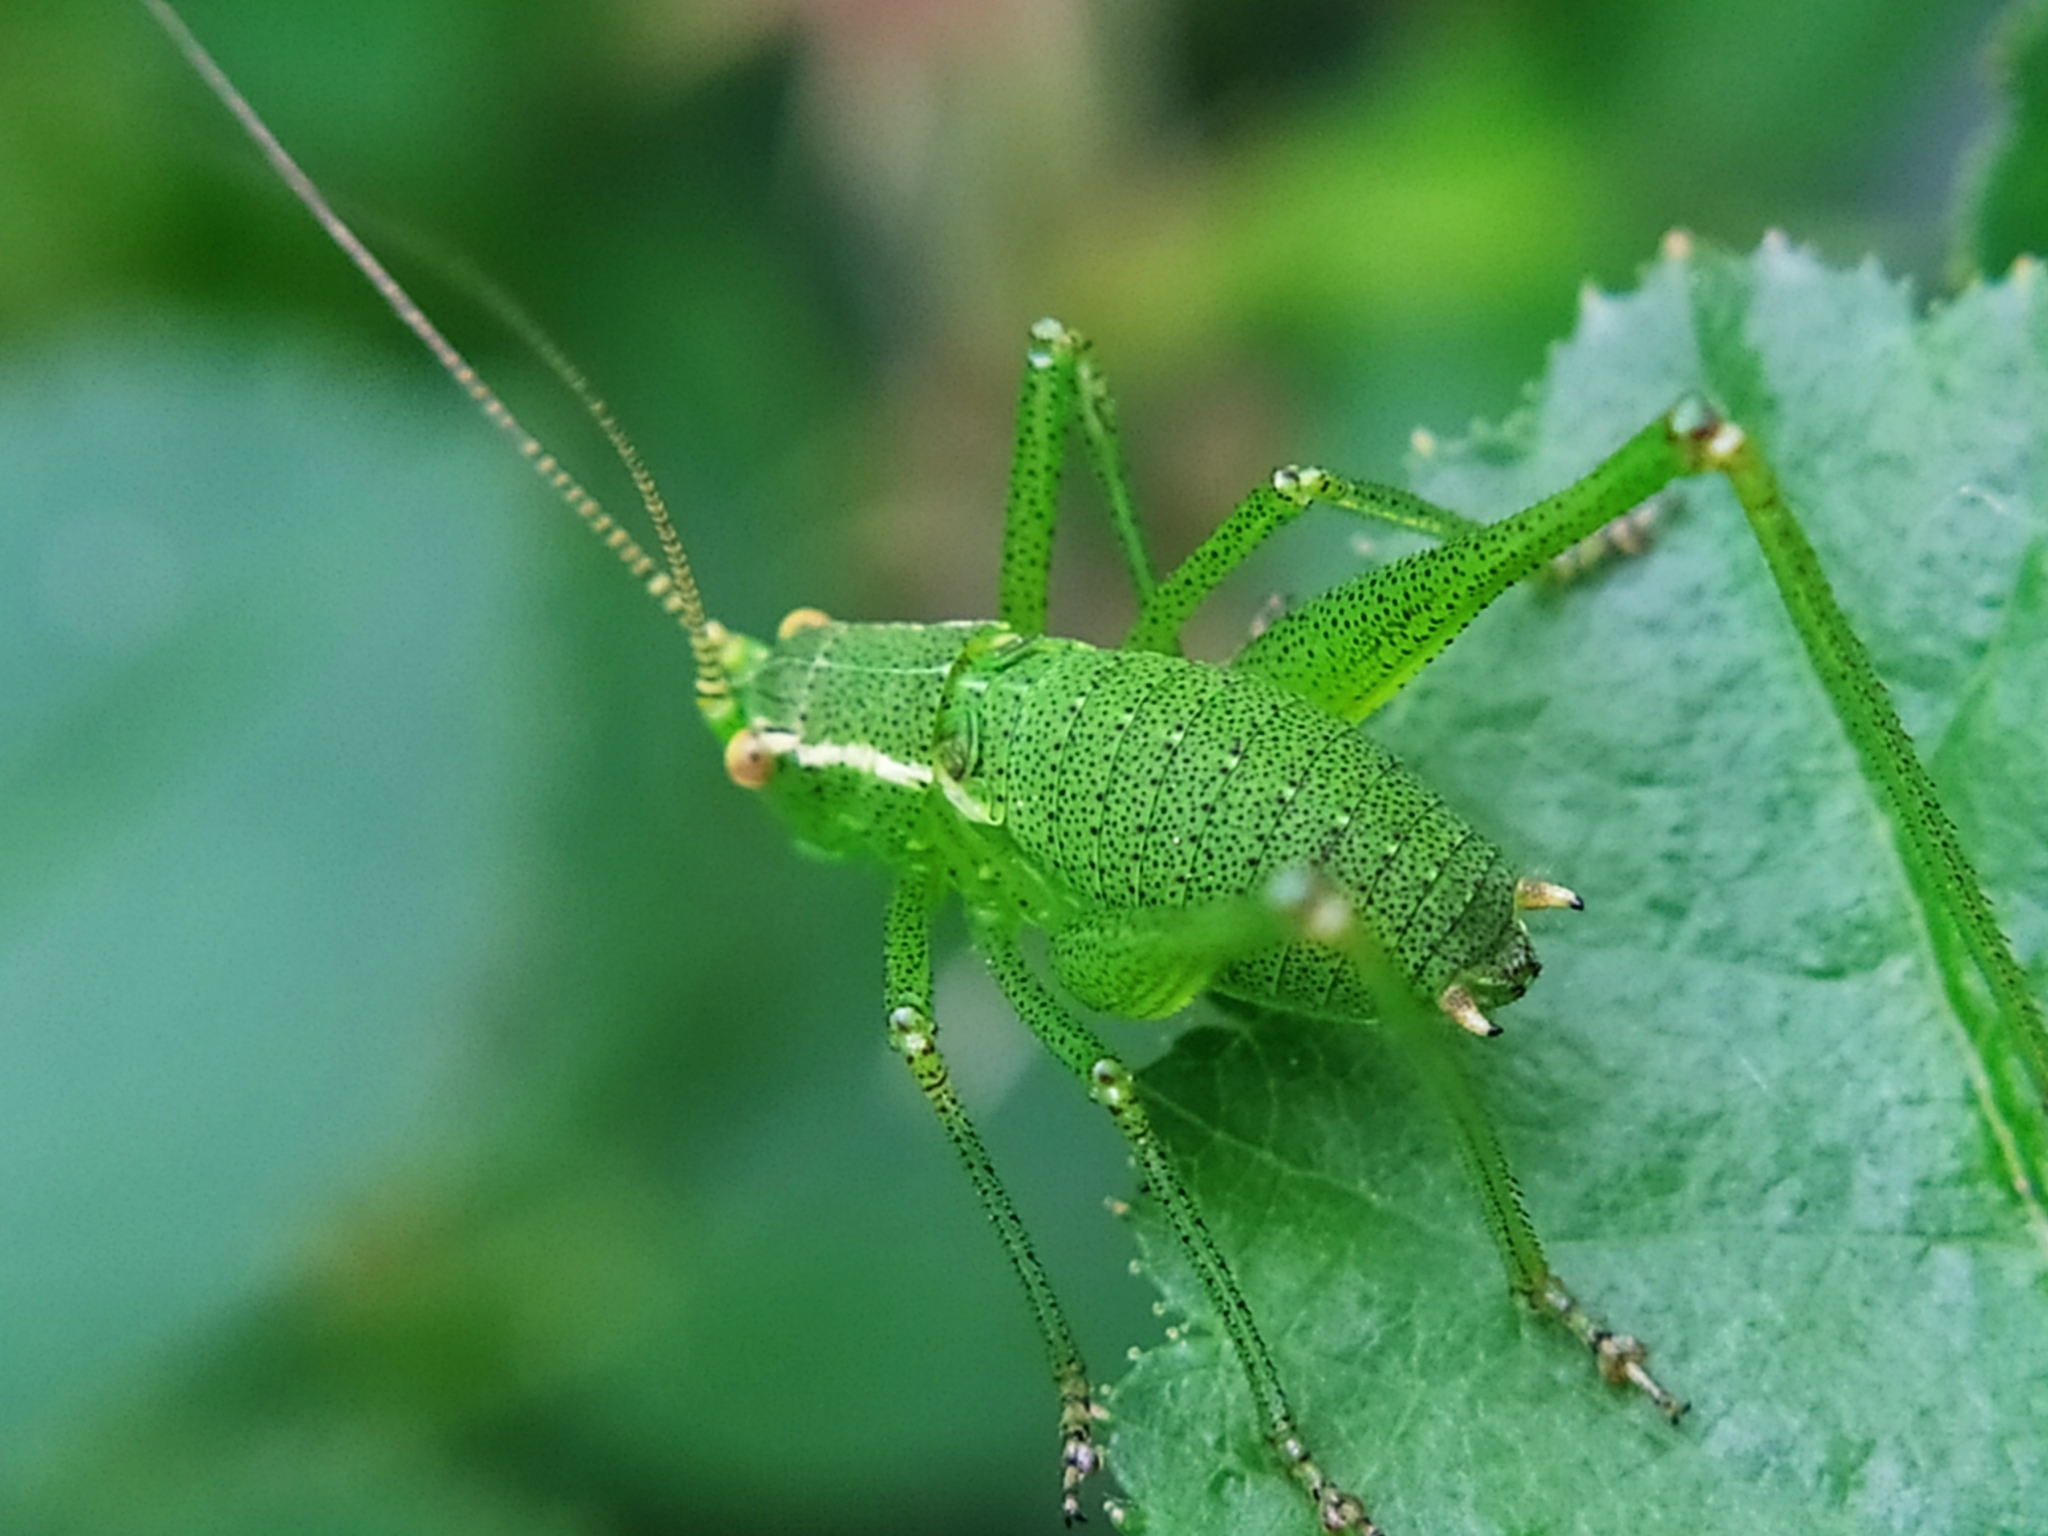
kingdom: Animalia
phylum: Arthropoda
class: Insecta
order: Orthoptera
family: Tettigoniidae
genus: Leptophyes
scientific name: Leptophyes punctatissima
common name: Speckled bush-cricket
